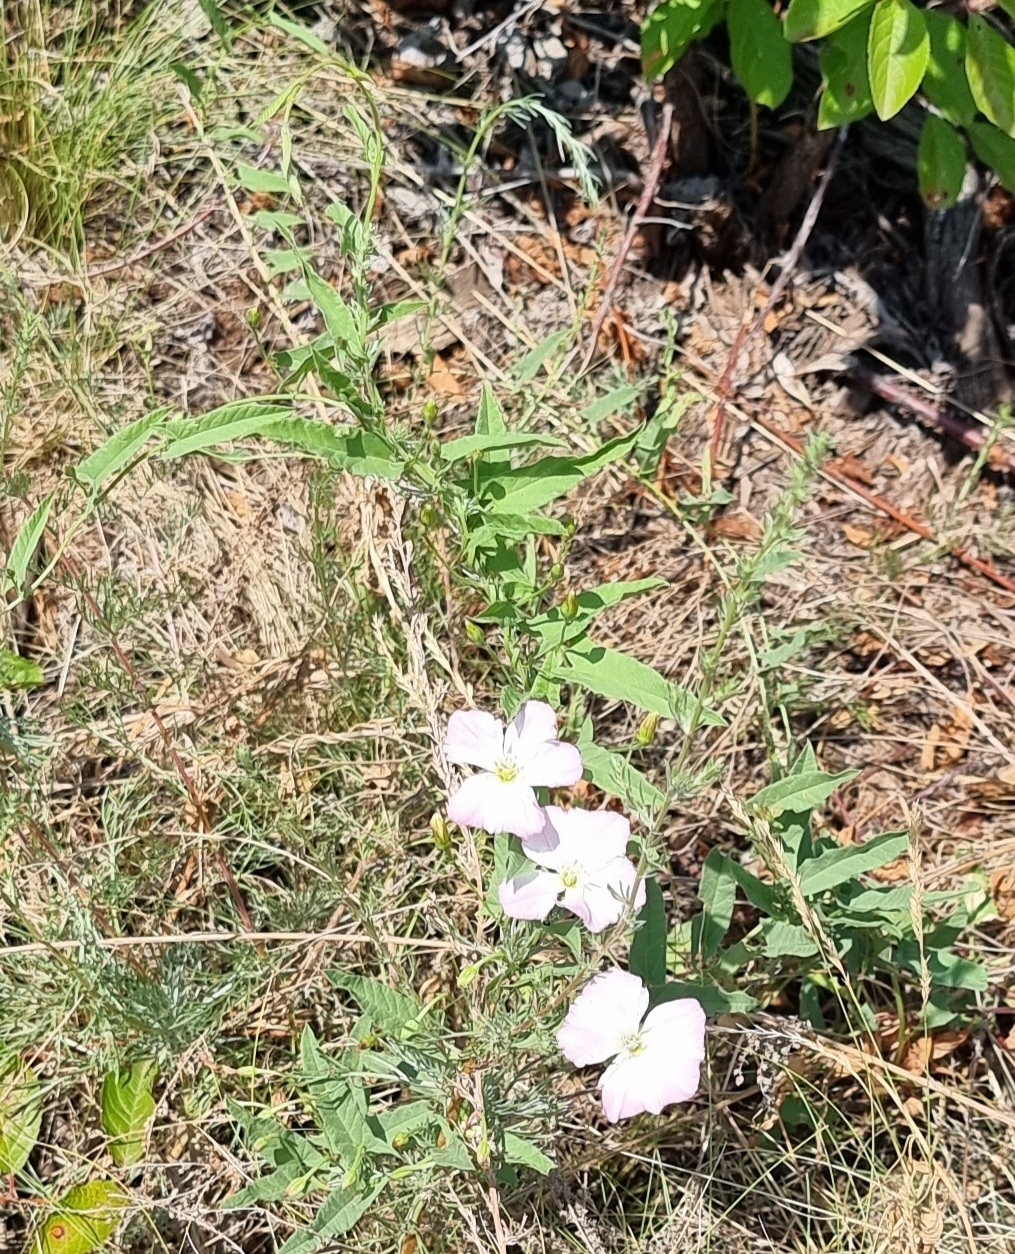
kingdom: Plantae
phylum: Tracheophyta
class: Magnoliopsida
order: Solanales
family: Convolvulaceae
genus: Convolvulus
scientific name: Convolvulus arvensis
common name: Field bindweed
